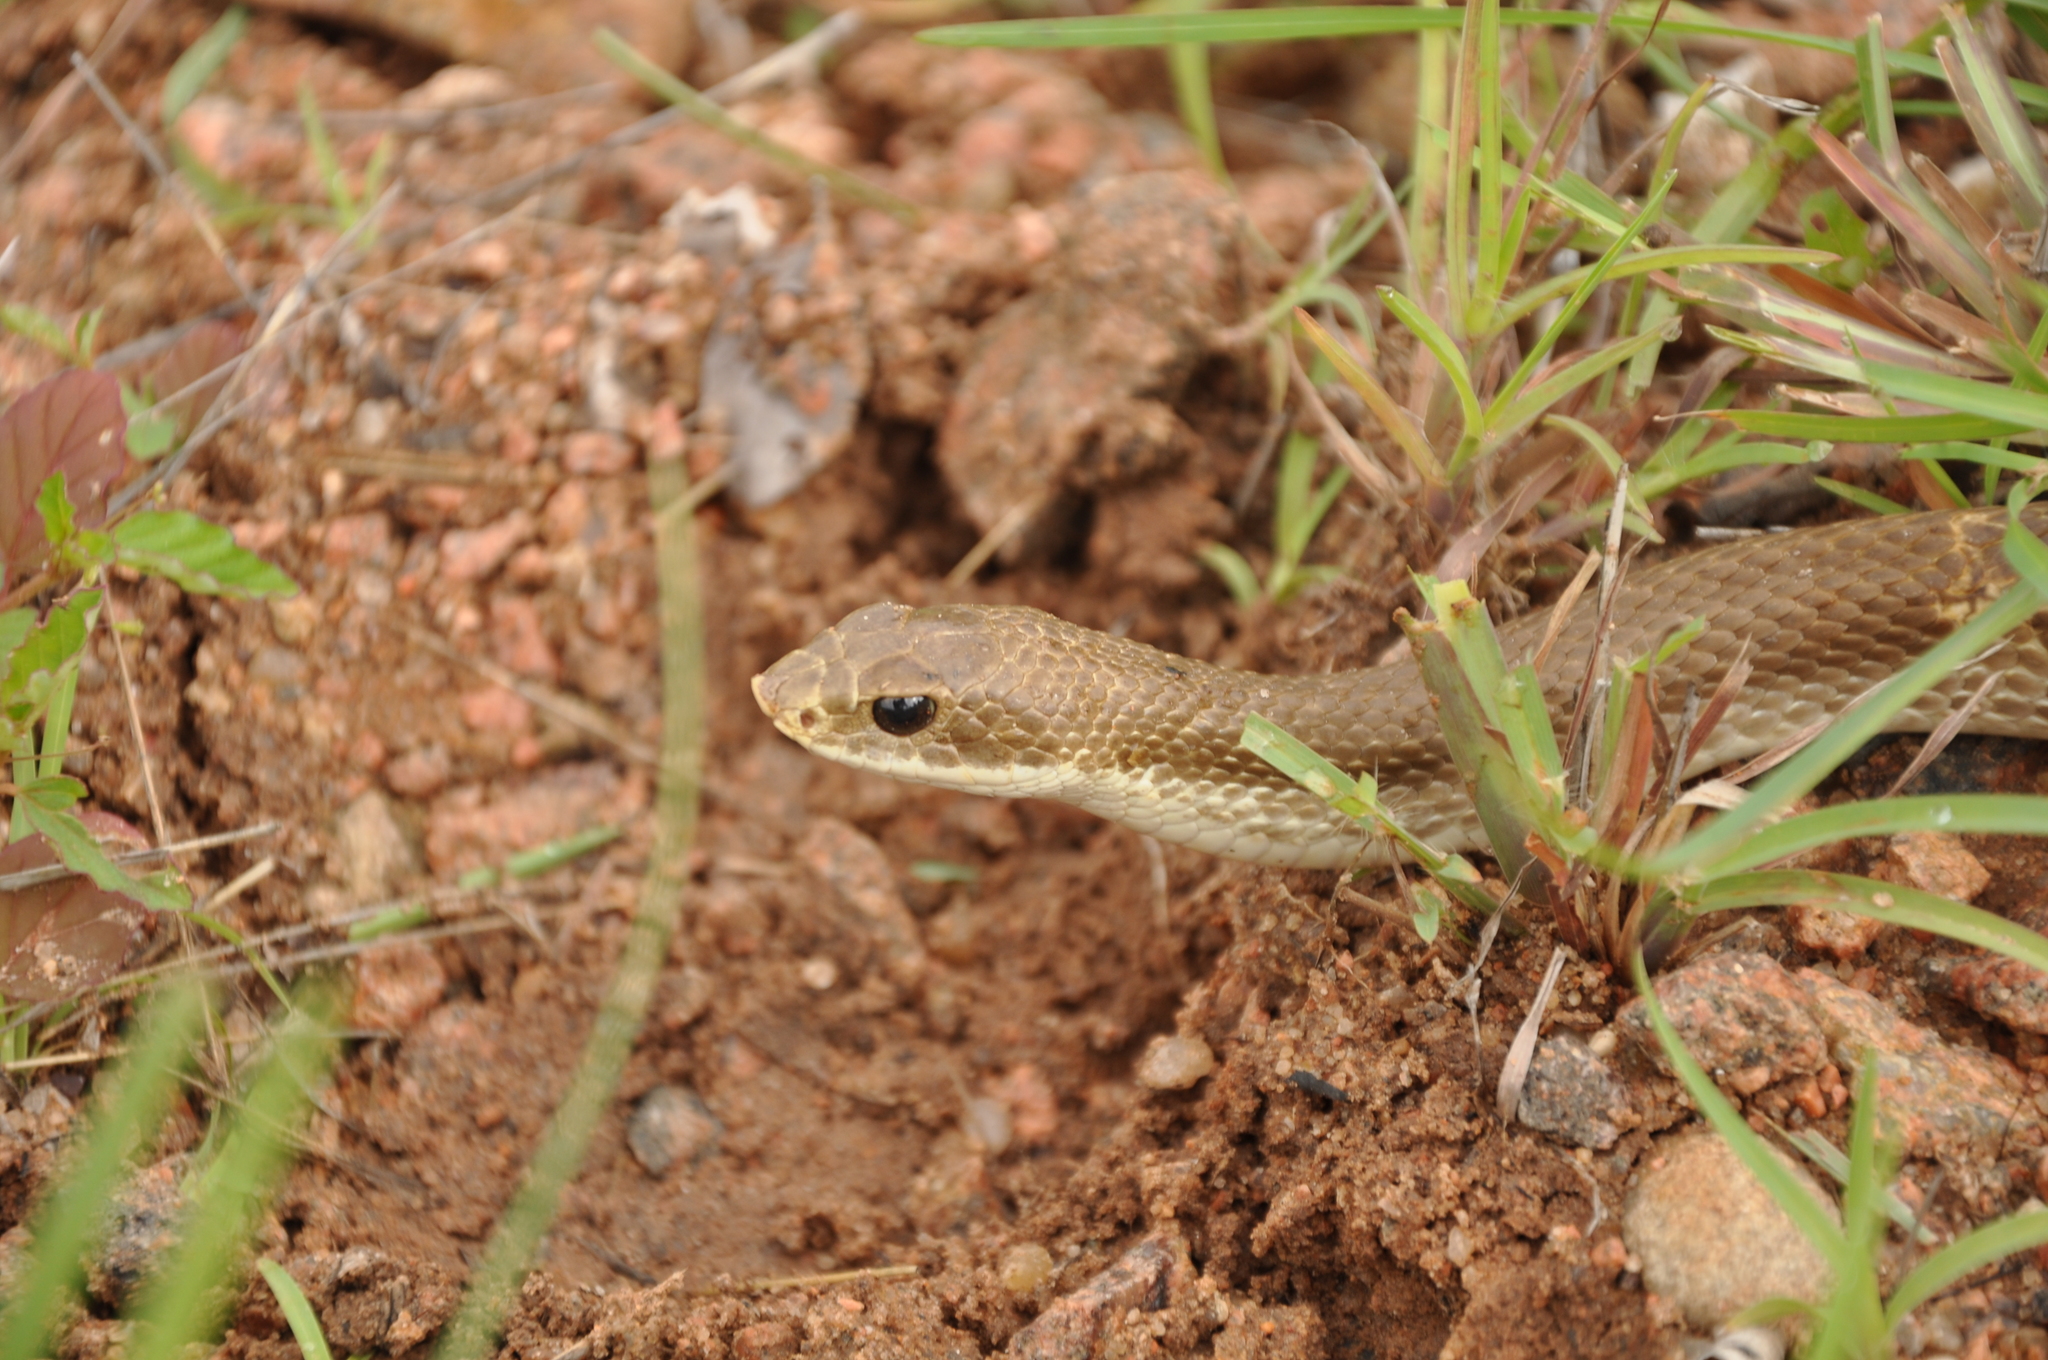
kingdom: Animalia
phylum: Chordata
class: Squamata
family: Pseudoxyrhophiidae
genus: Leioheterodon
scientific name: Leioheterodon modestus
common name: Blonde hognose snake
